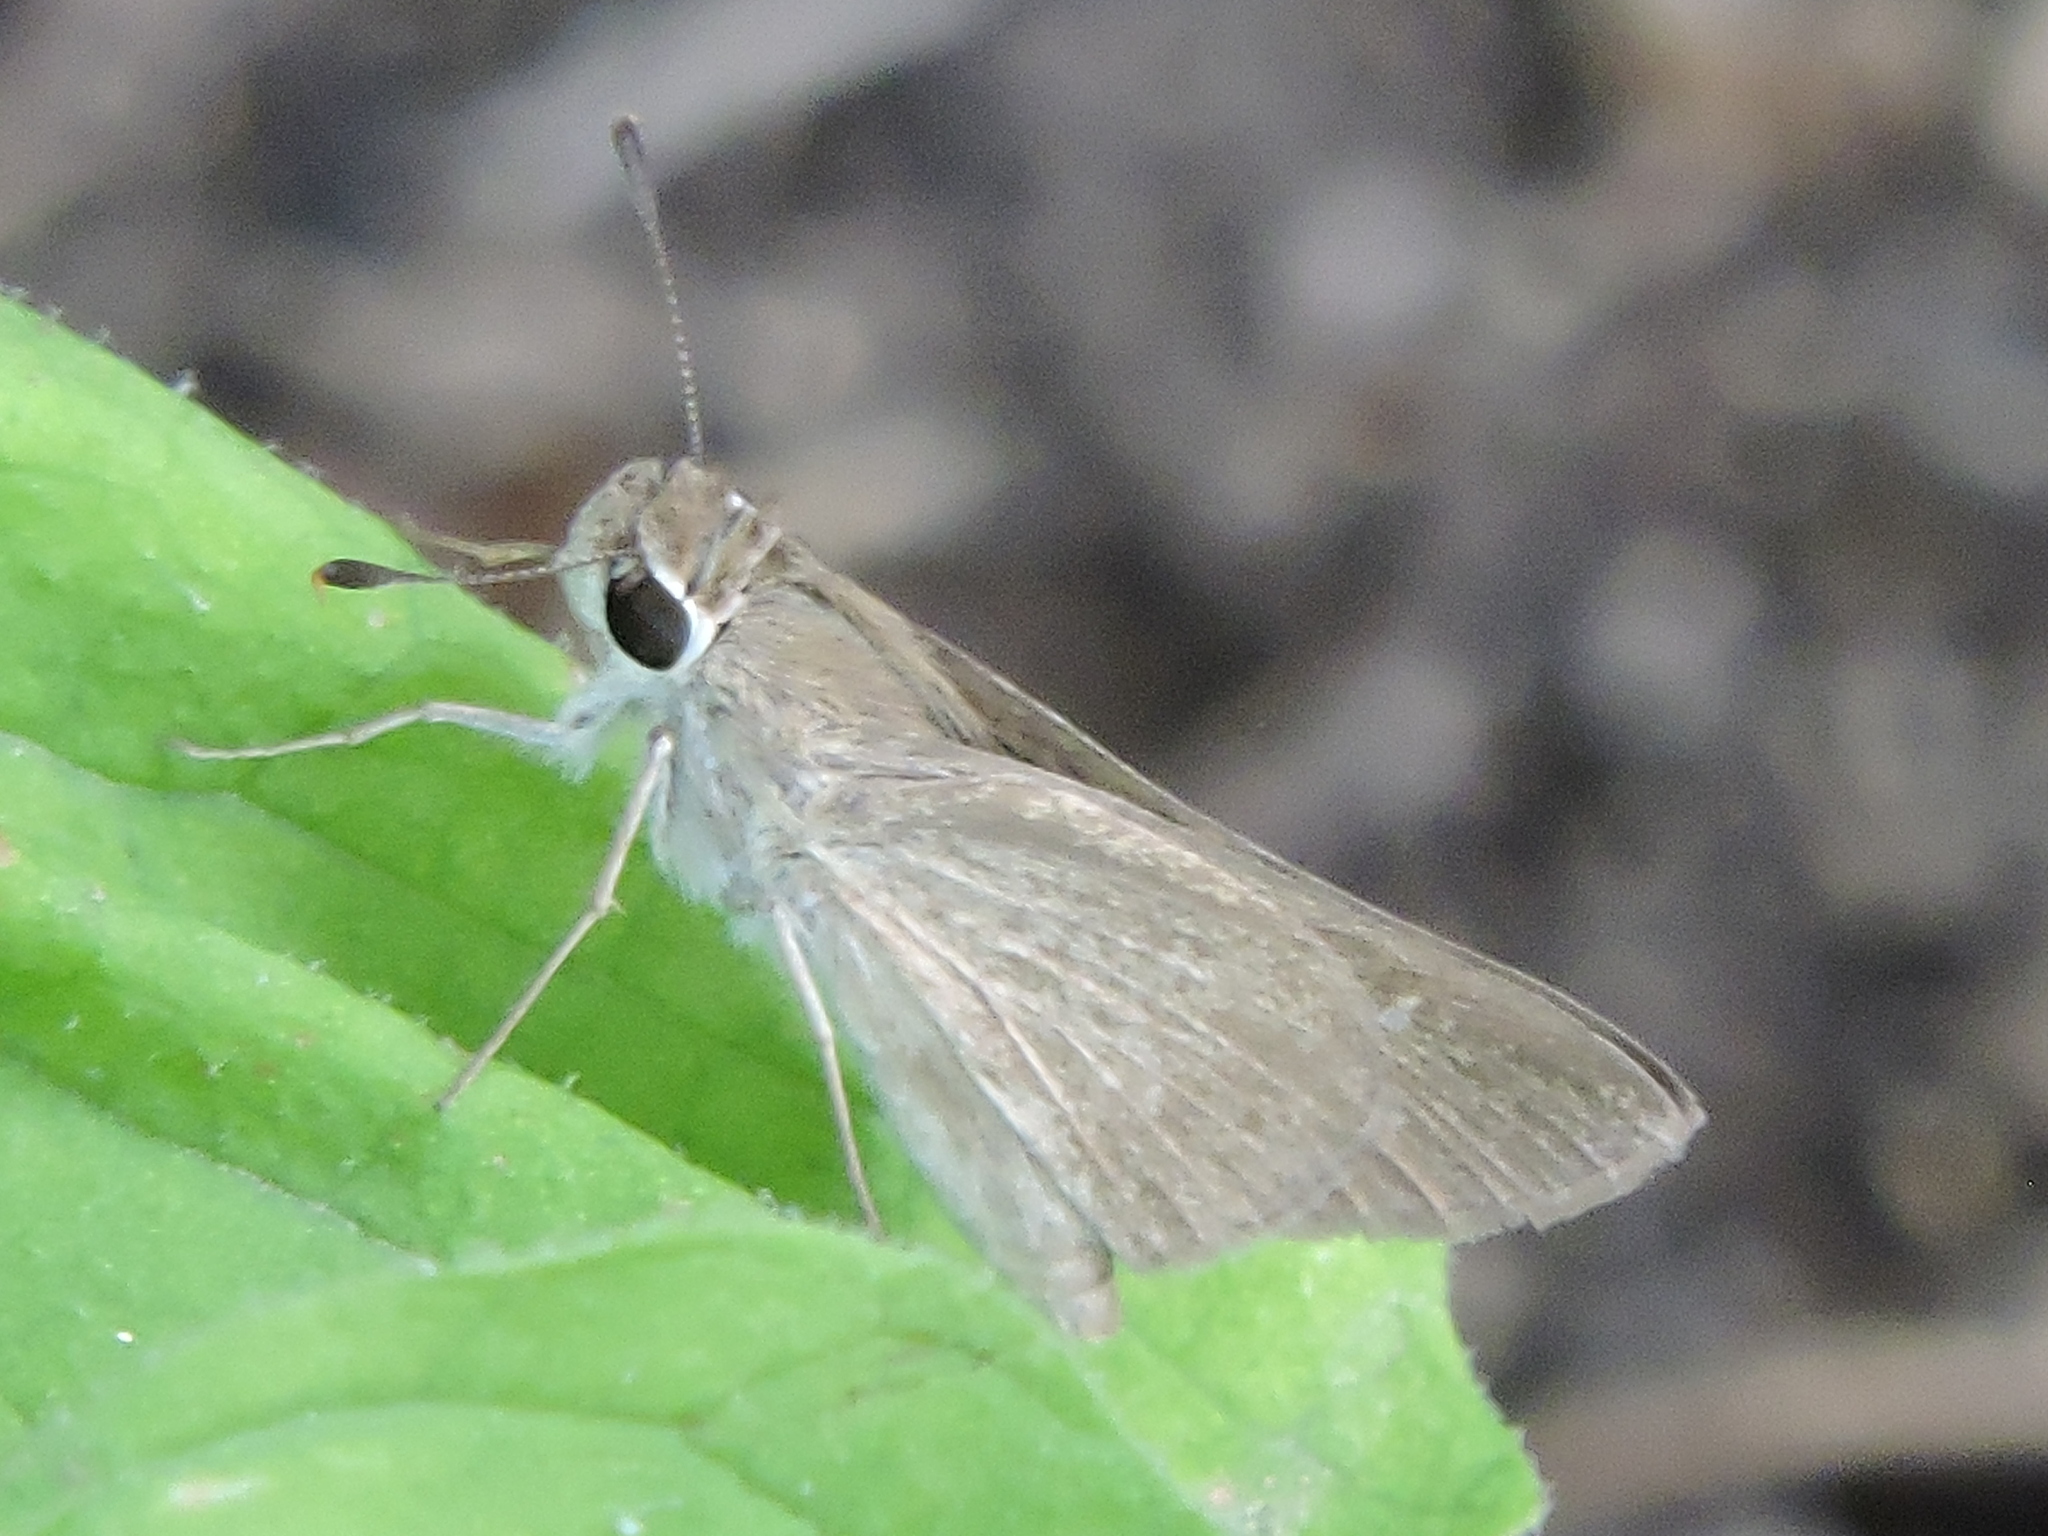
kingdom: Animalia
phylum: Arthropoda
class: Insecta
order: Lepidoptera
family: Hesperiidae
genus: Lerodea
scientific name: Lerodea eufala
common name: Eufala skipper
